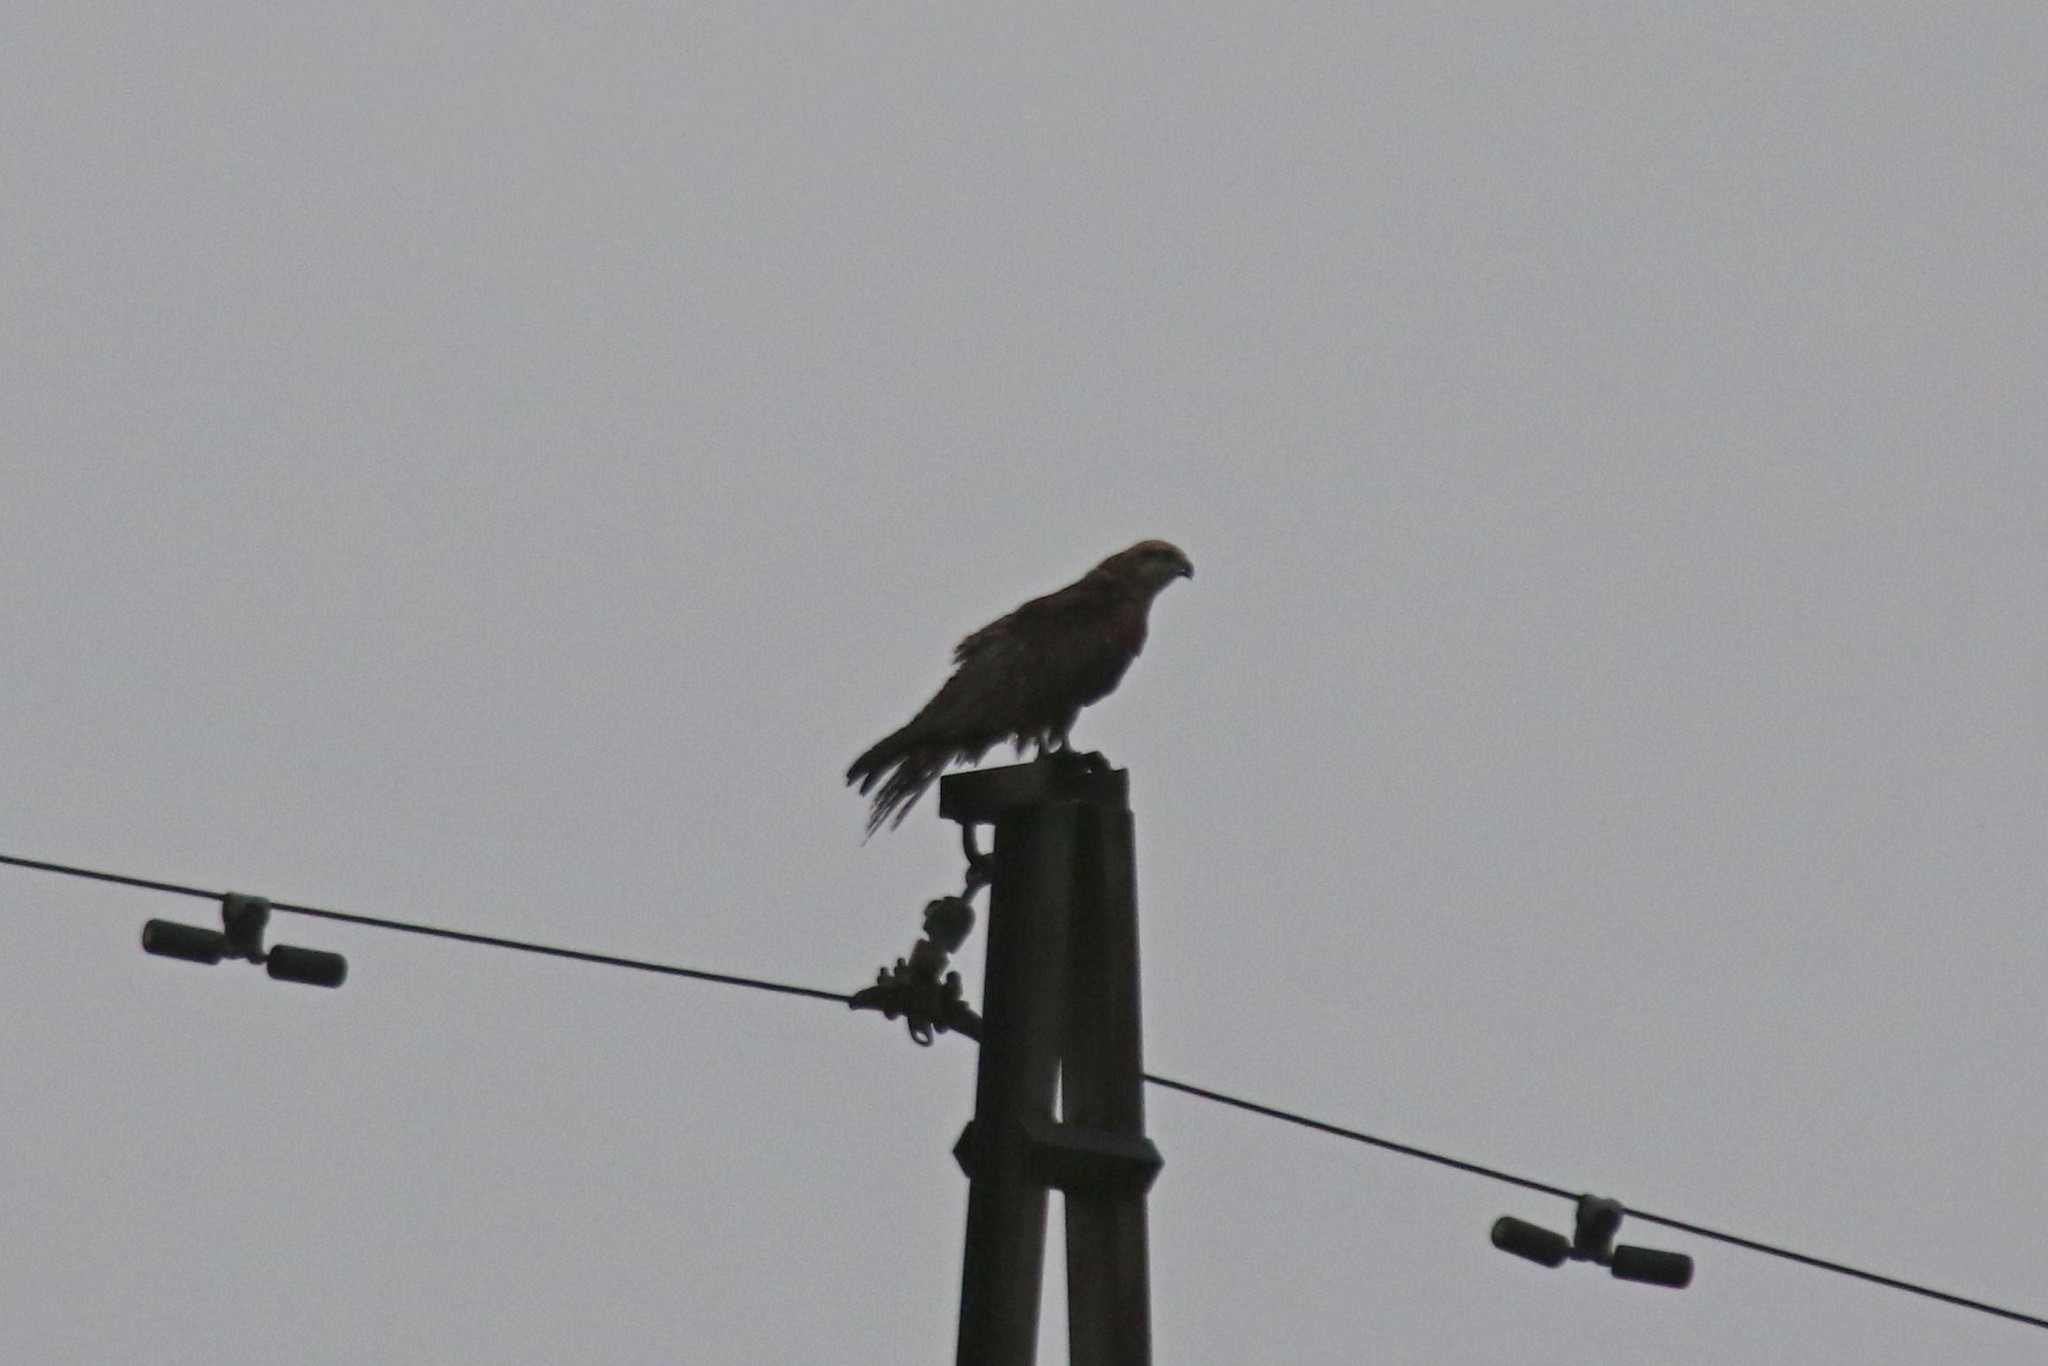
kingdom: Animalia
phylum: Chordata
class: Aves
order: Accipitriformes
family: Accipitridae
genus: Milvus
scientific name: Milvus migrans
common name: Black kite
